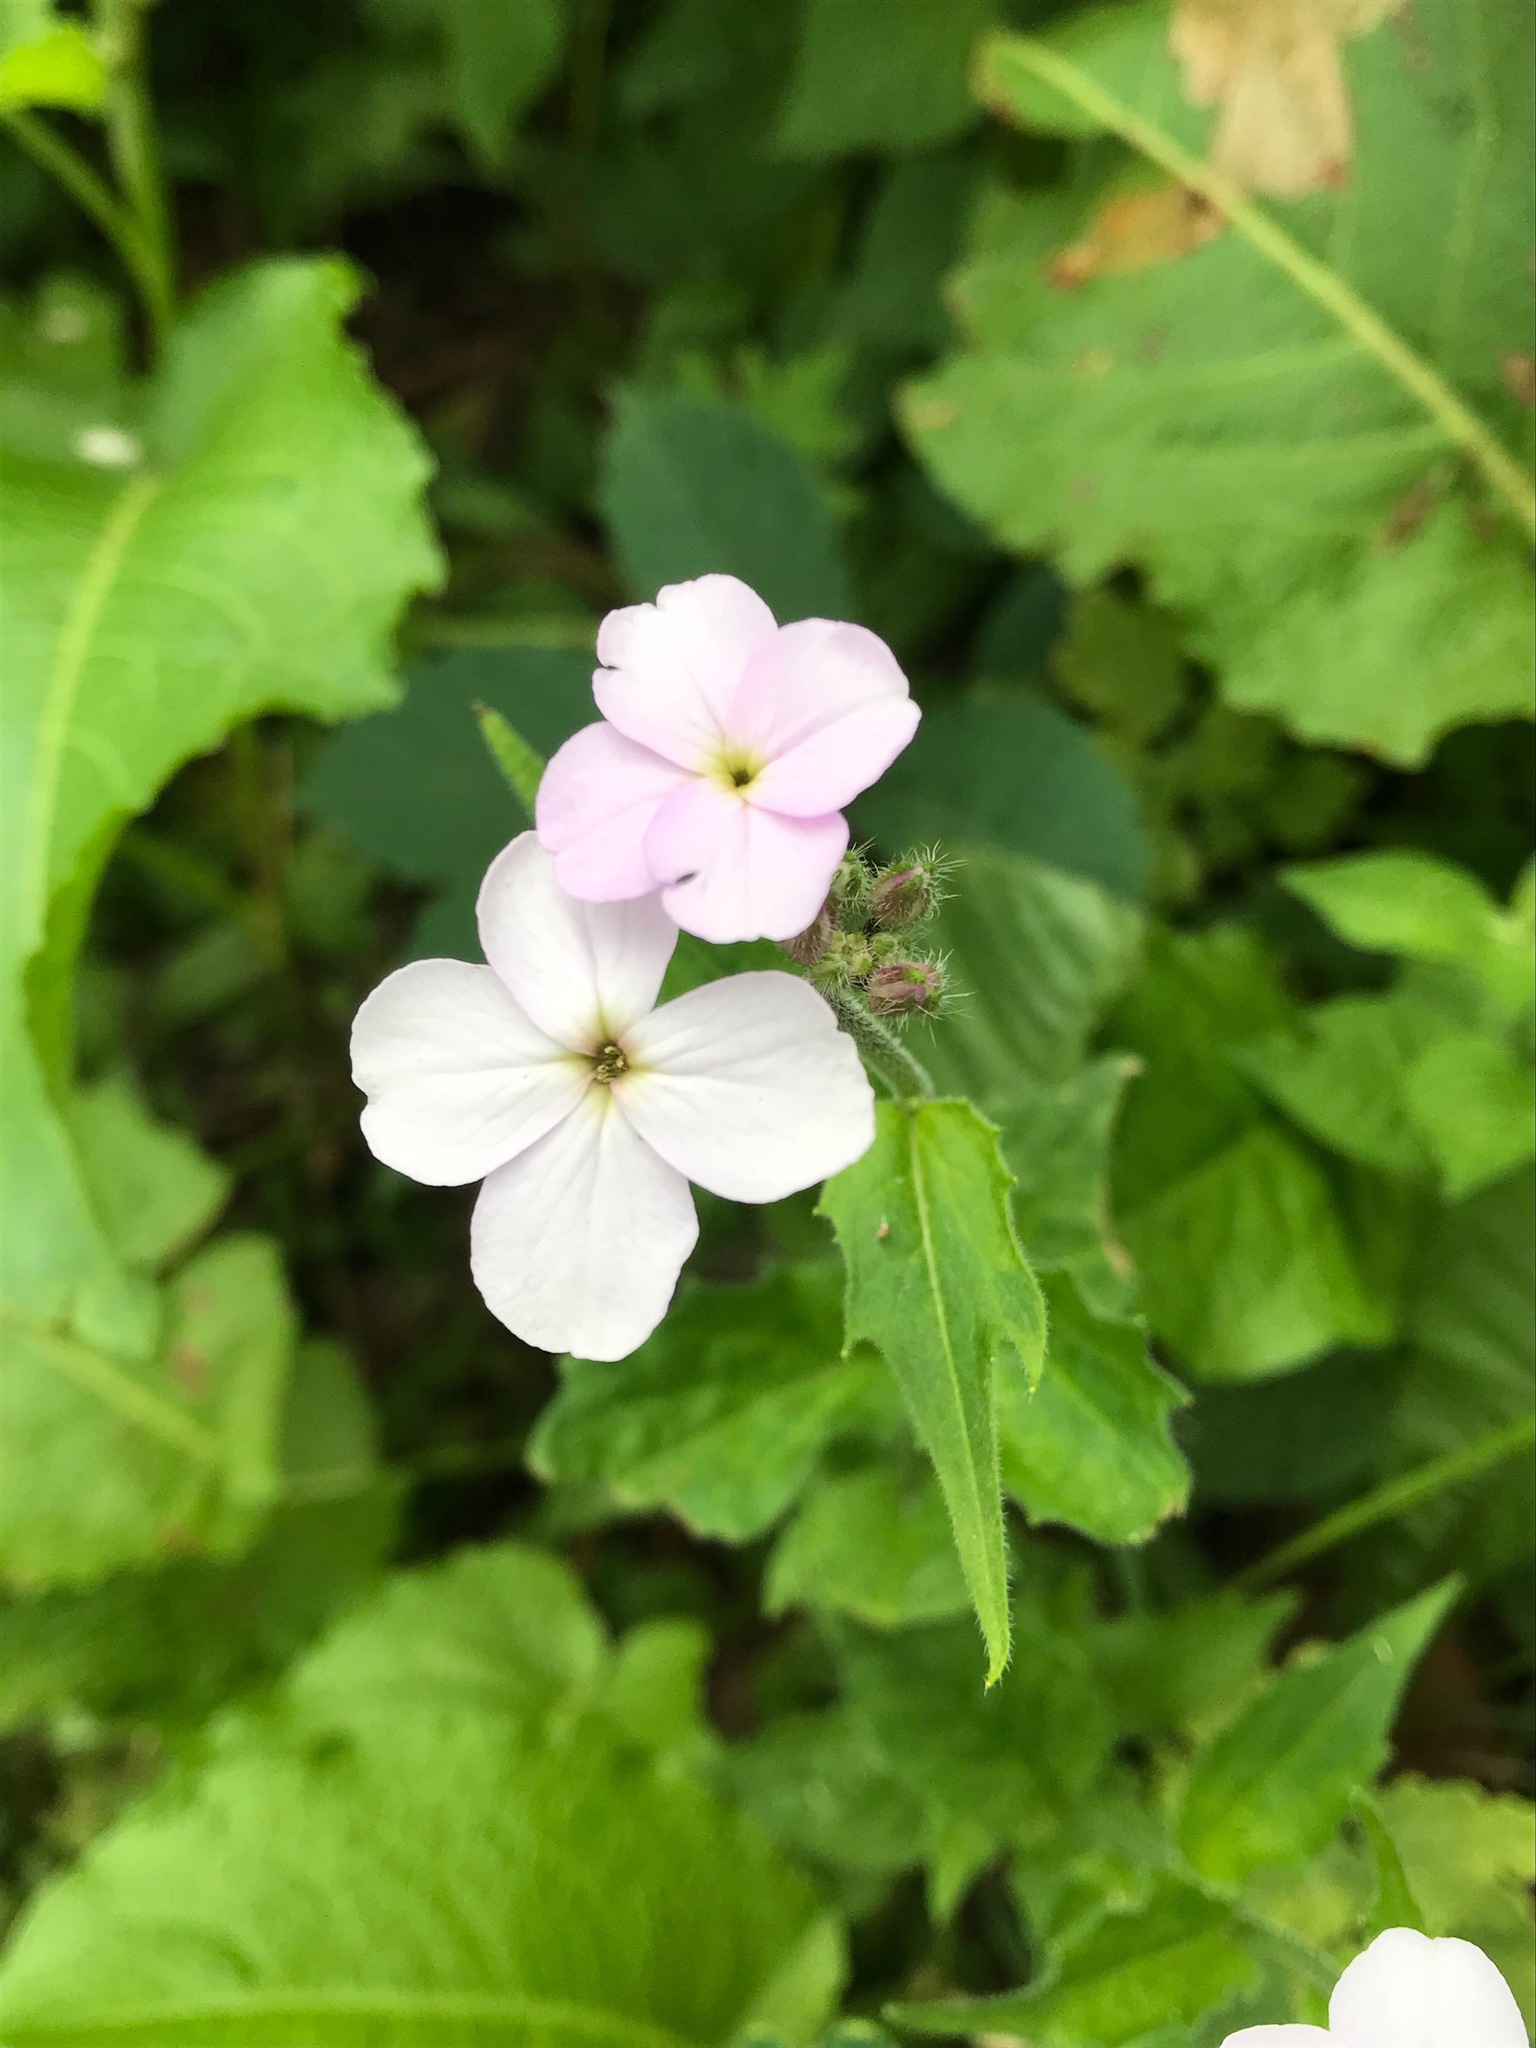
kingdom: Plantae
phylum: Tracheophyta
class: Magnoliopsida
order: Brassicales
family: Brassicaceae
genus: Hesperis
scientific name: Hesperis matronalis
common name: Dame's-violet
